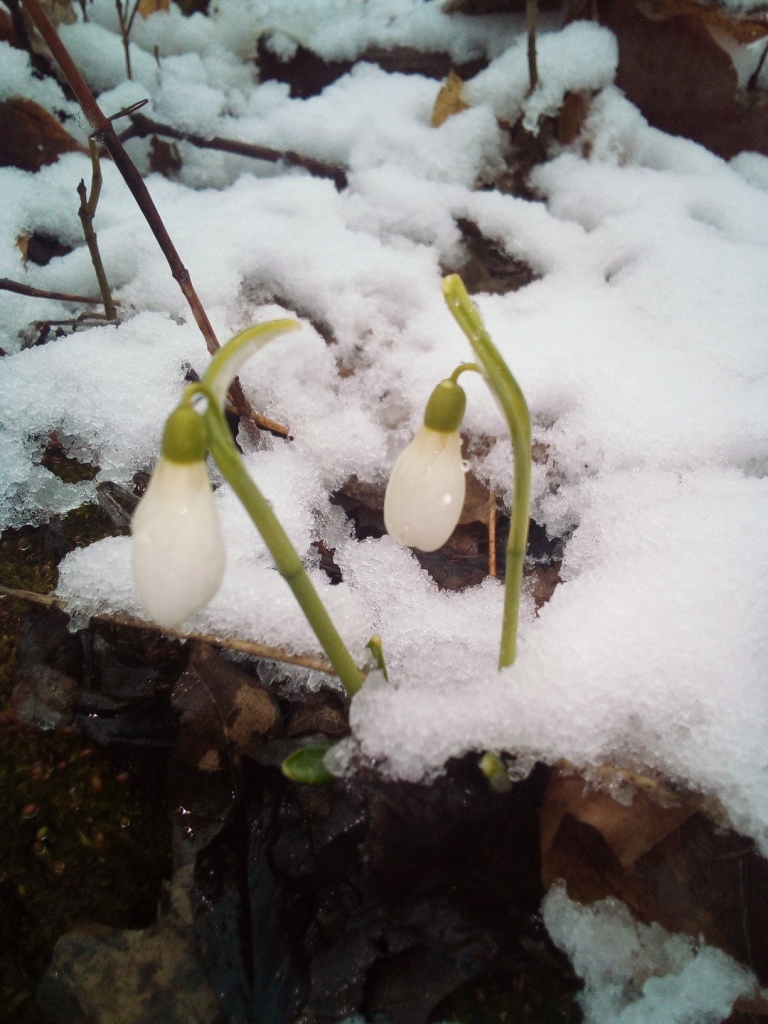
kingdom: Plantae
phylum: Tracheophyta
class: Liliopsida
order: Asparagales
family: Amaryllidaceae
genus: Galanthus
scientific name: Galanthus plicatus
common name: Pleated snowdrop
